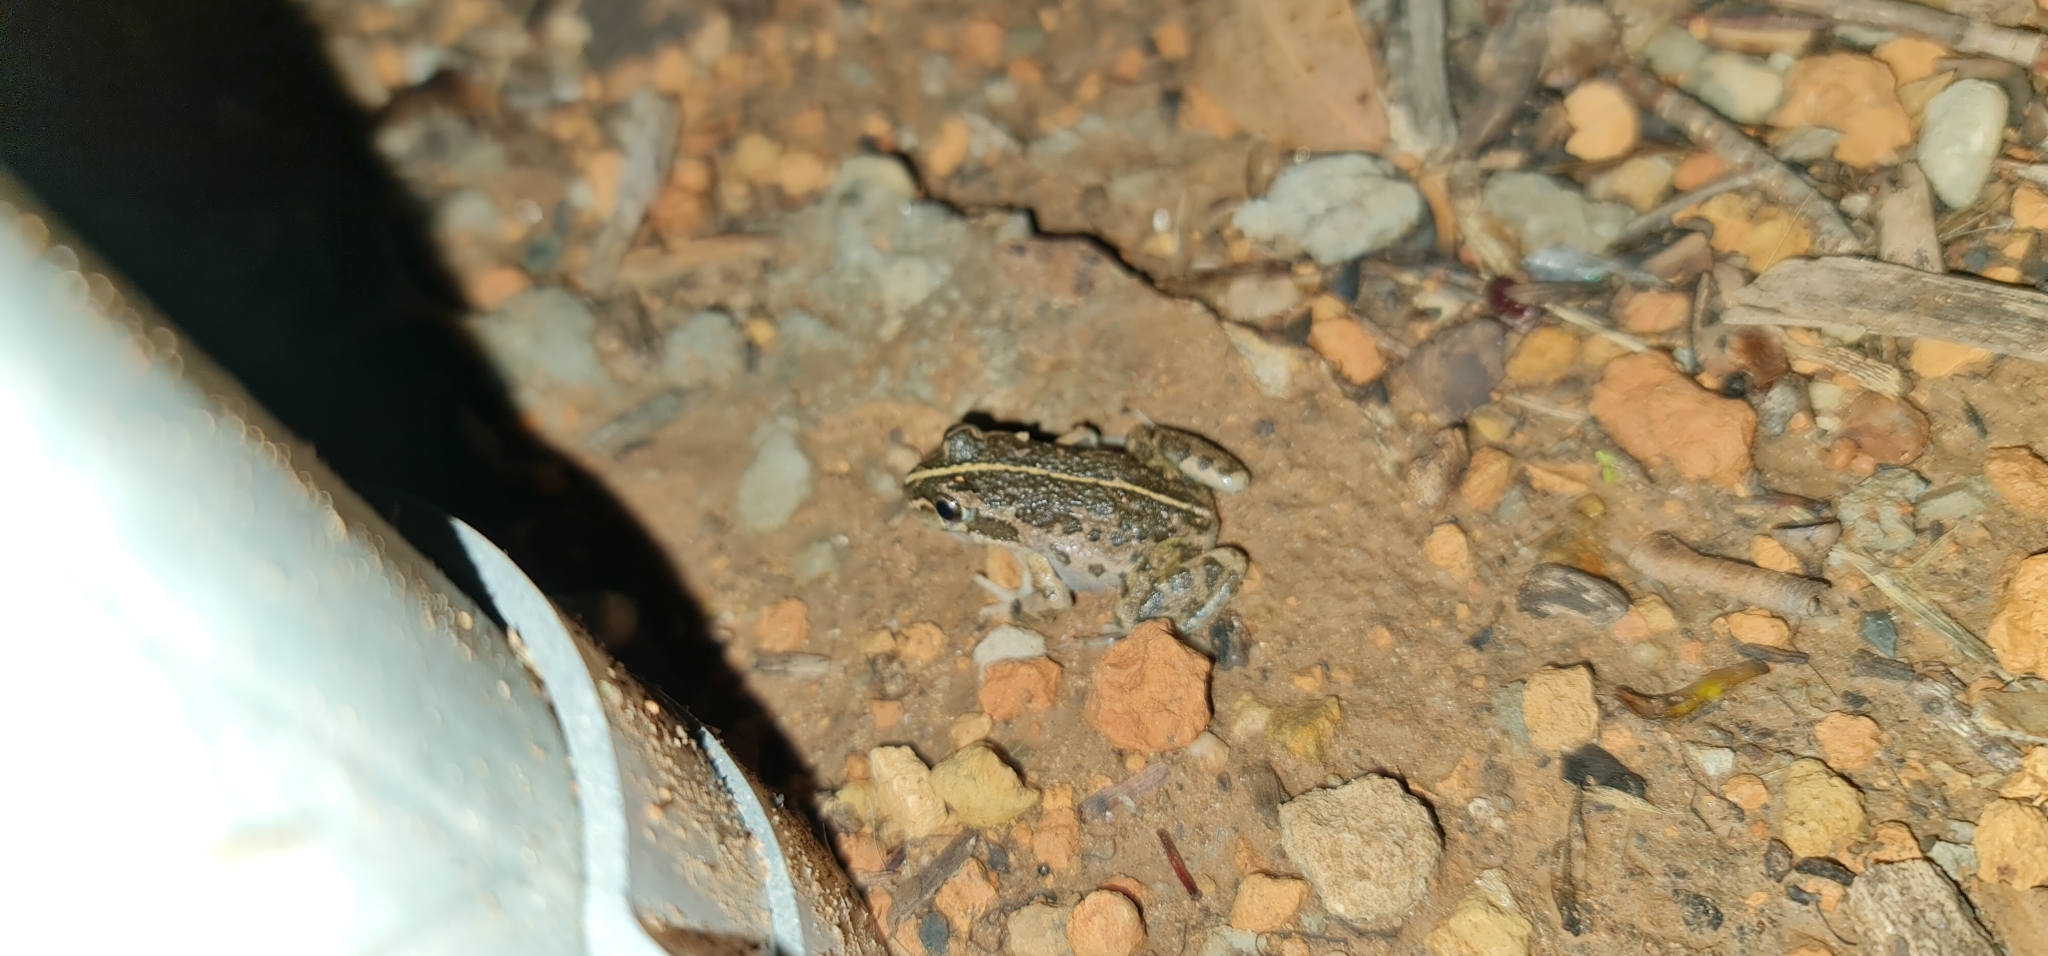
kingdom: Animalia
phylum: Chordata
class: Amphibia
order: Anura
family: Limnodynastidae
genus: Limnodynastes
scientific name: Limnodynastes tasmaniensis
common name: Spotted marsh frog
